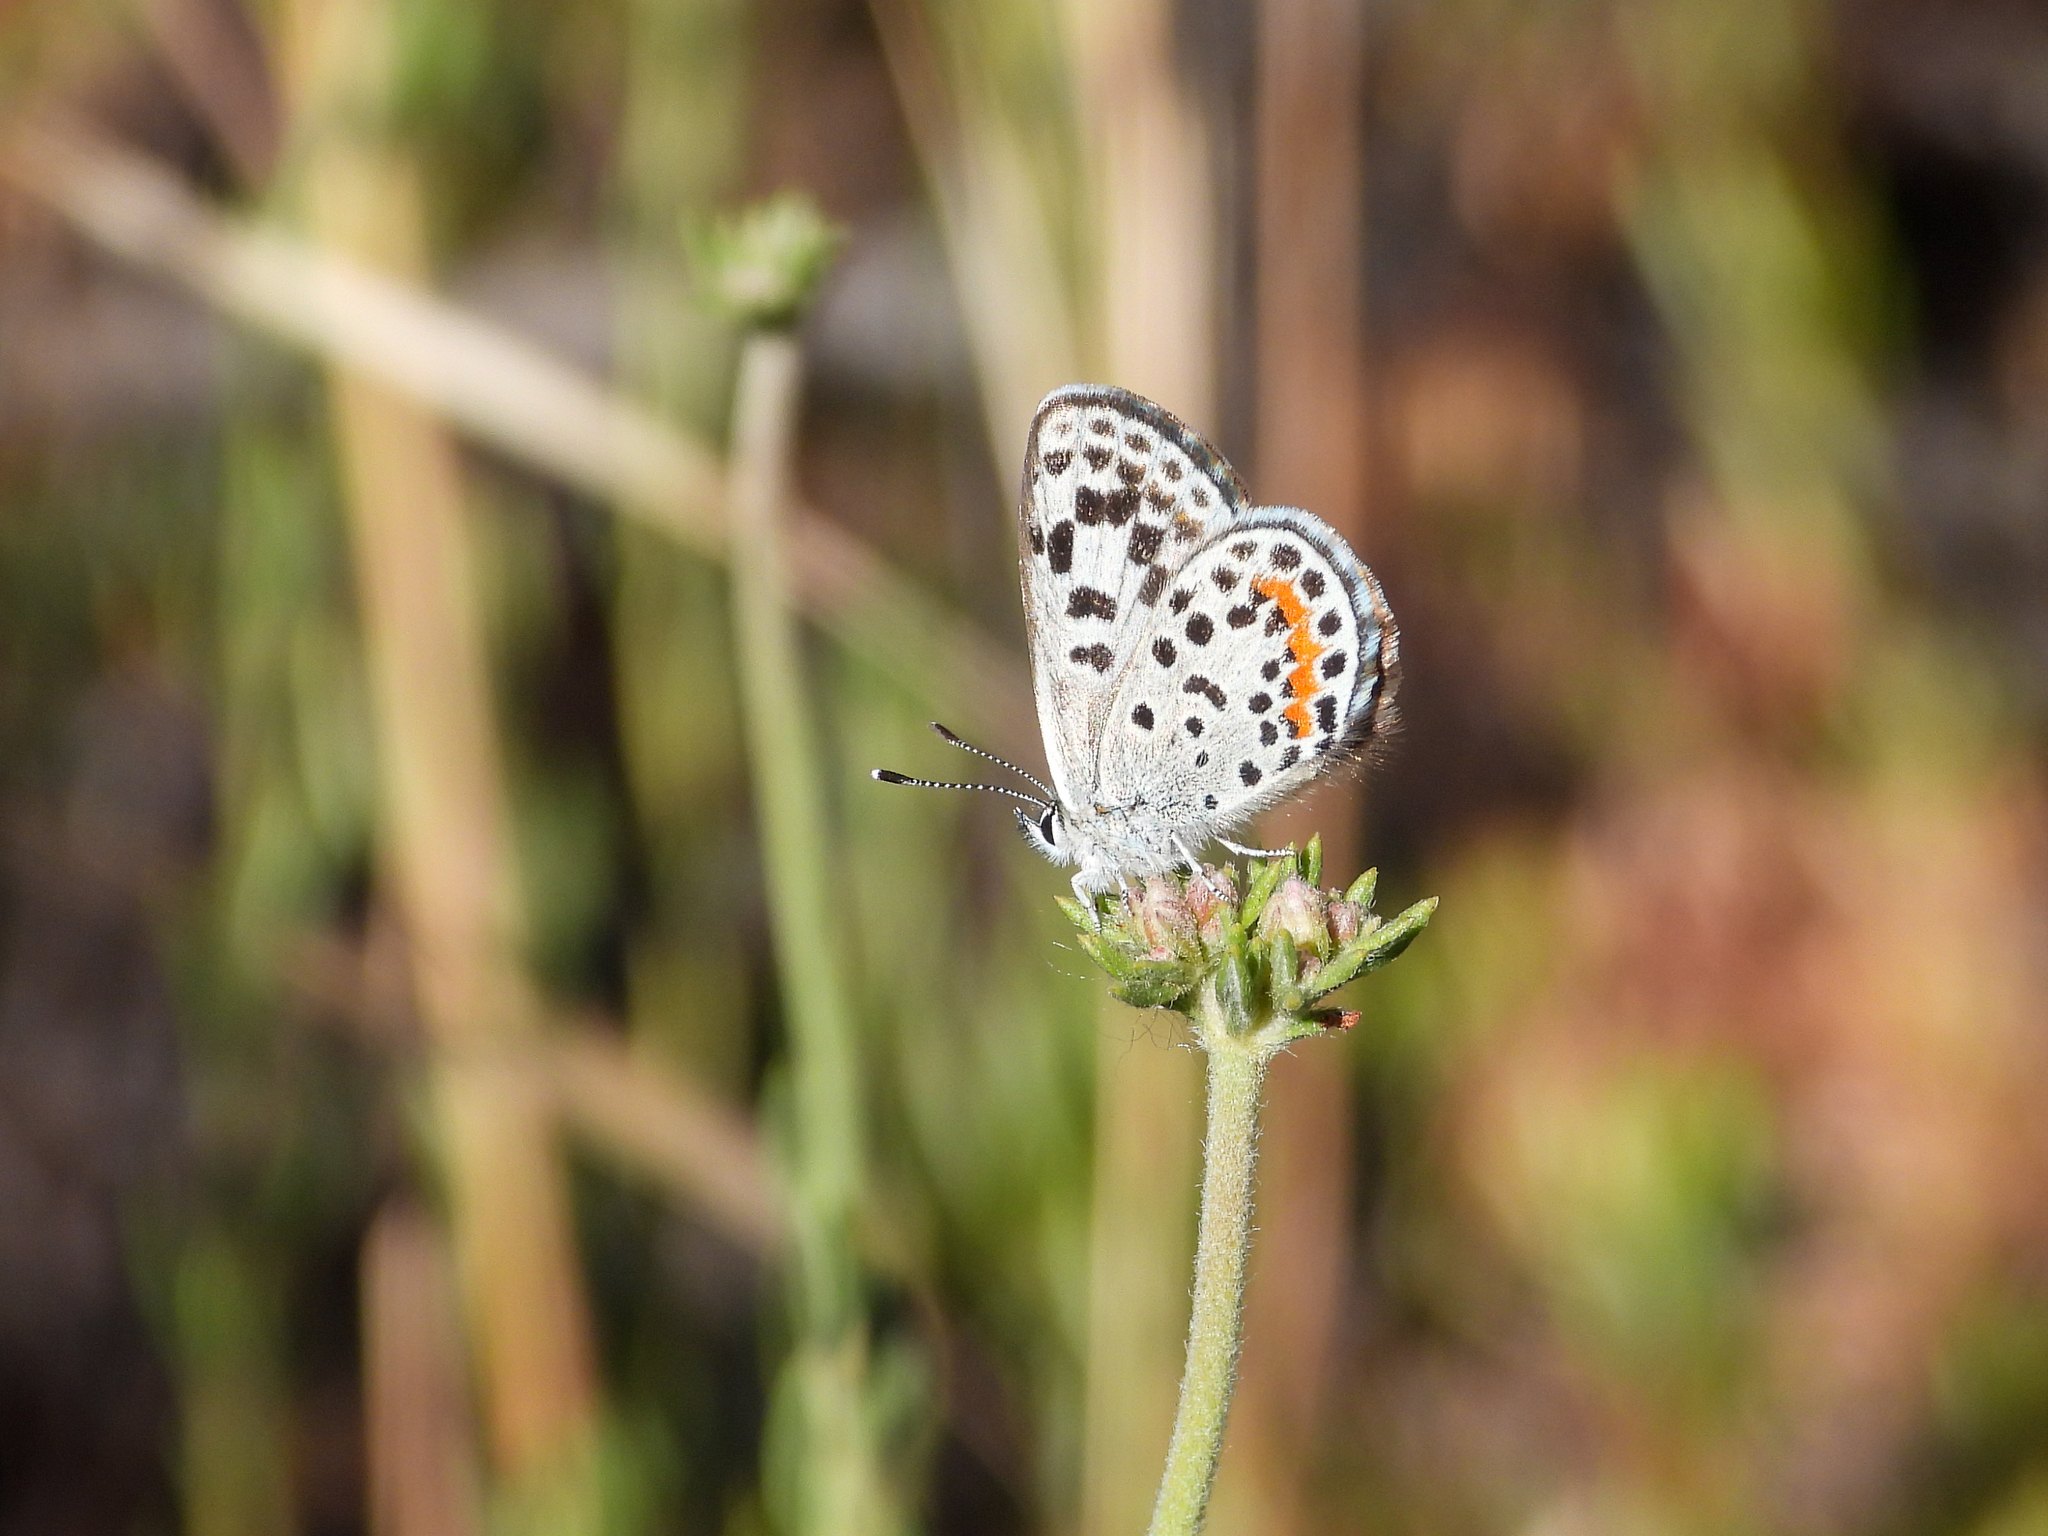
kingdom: Animalia
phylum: Arthropoda
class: Insecta
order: Lepidoptera
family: Lycaenidae
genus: Philotes
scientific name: Philotes bernardino
